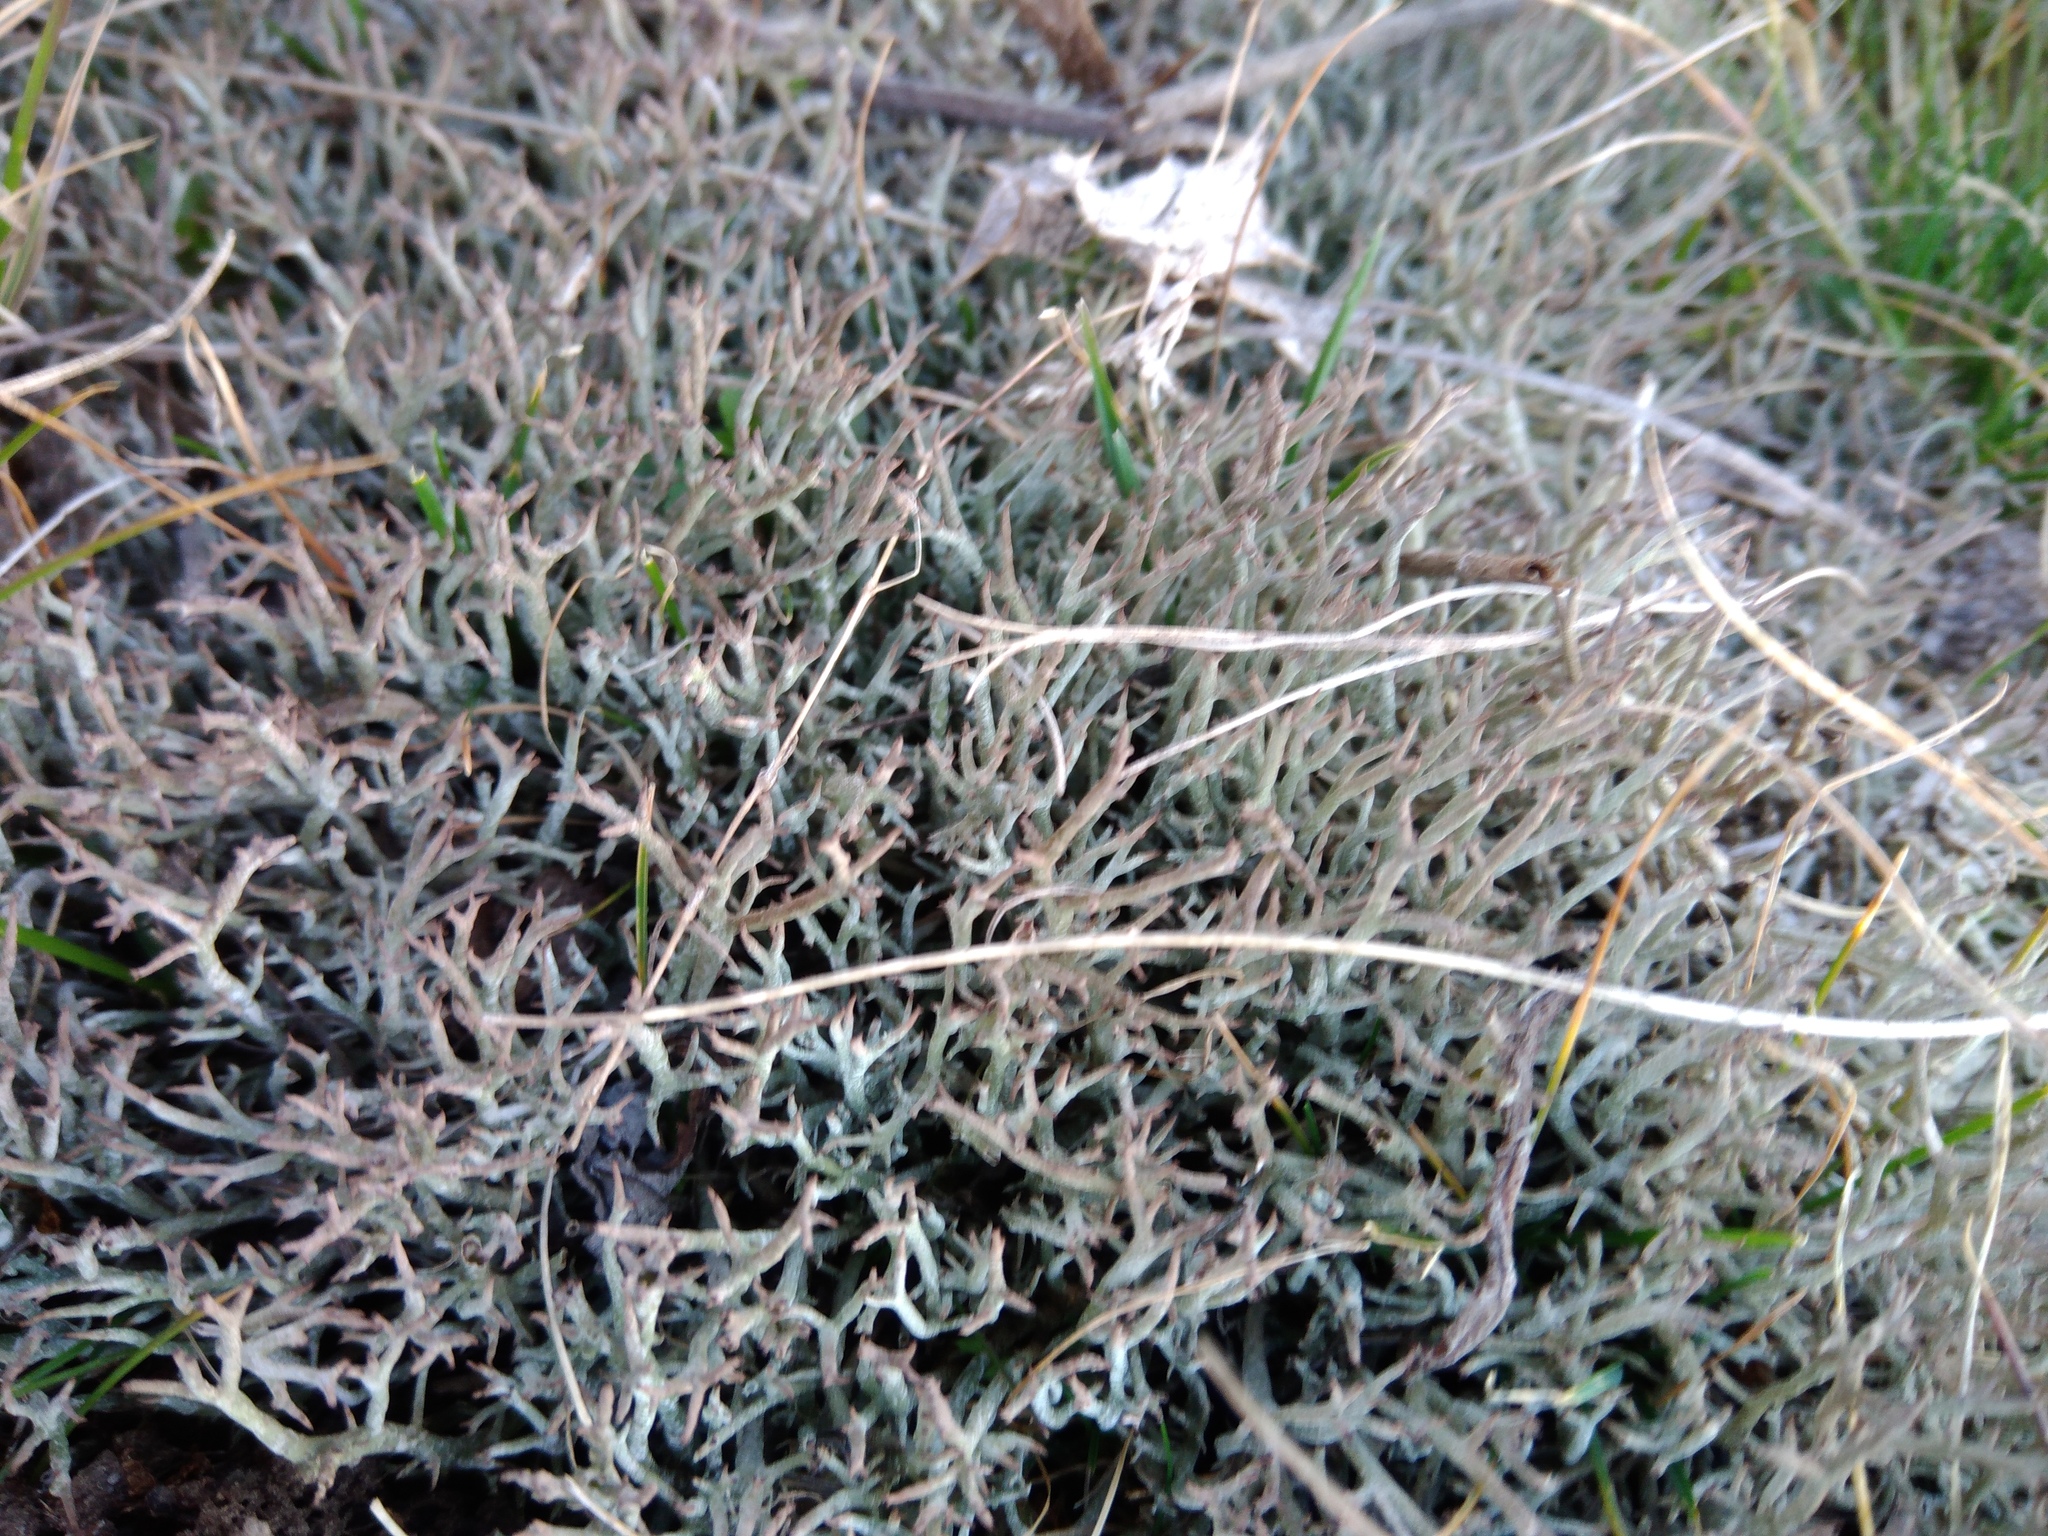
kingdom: Fungi
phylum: Ascomycota
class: Lecanoromycetes
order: Lecanorales
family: Cladoniaceae
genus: Cladonia
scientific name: Cladonia rangiformis
